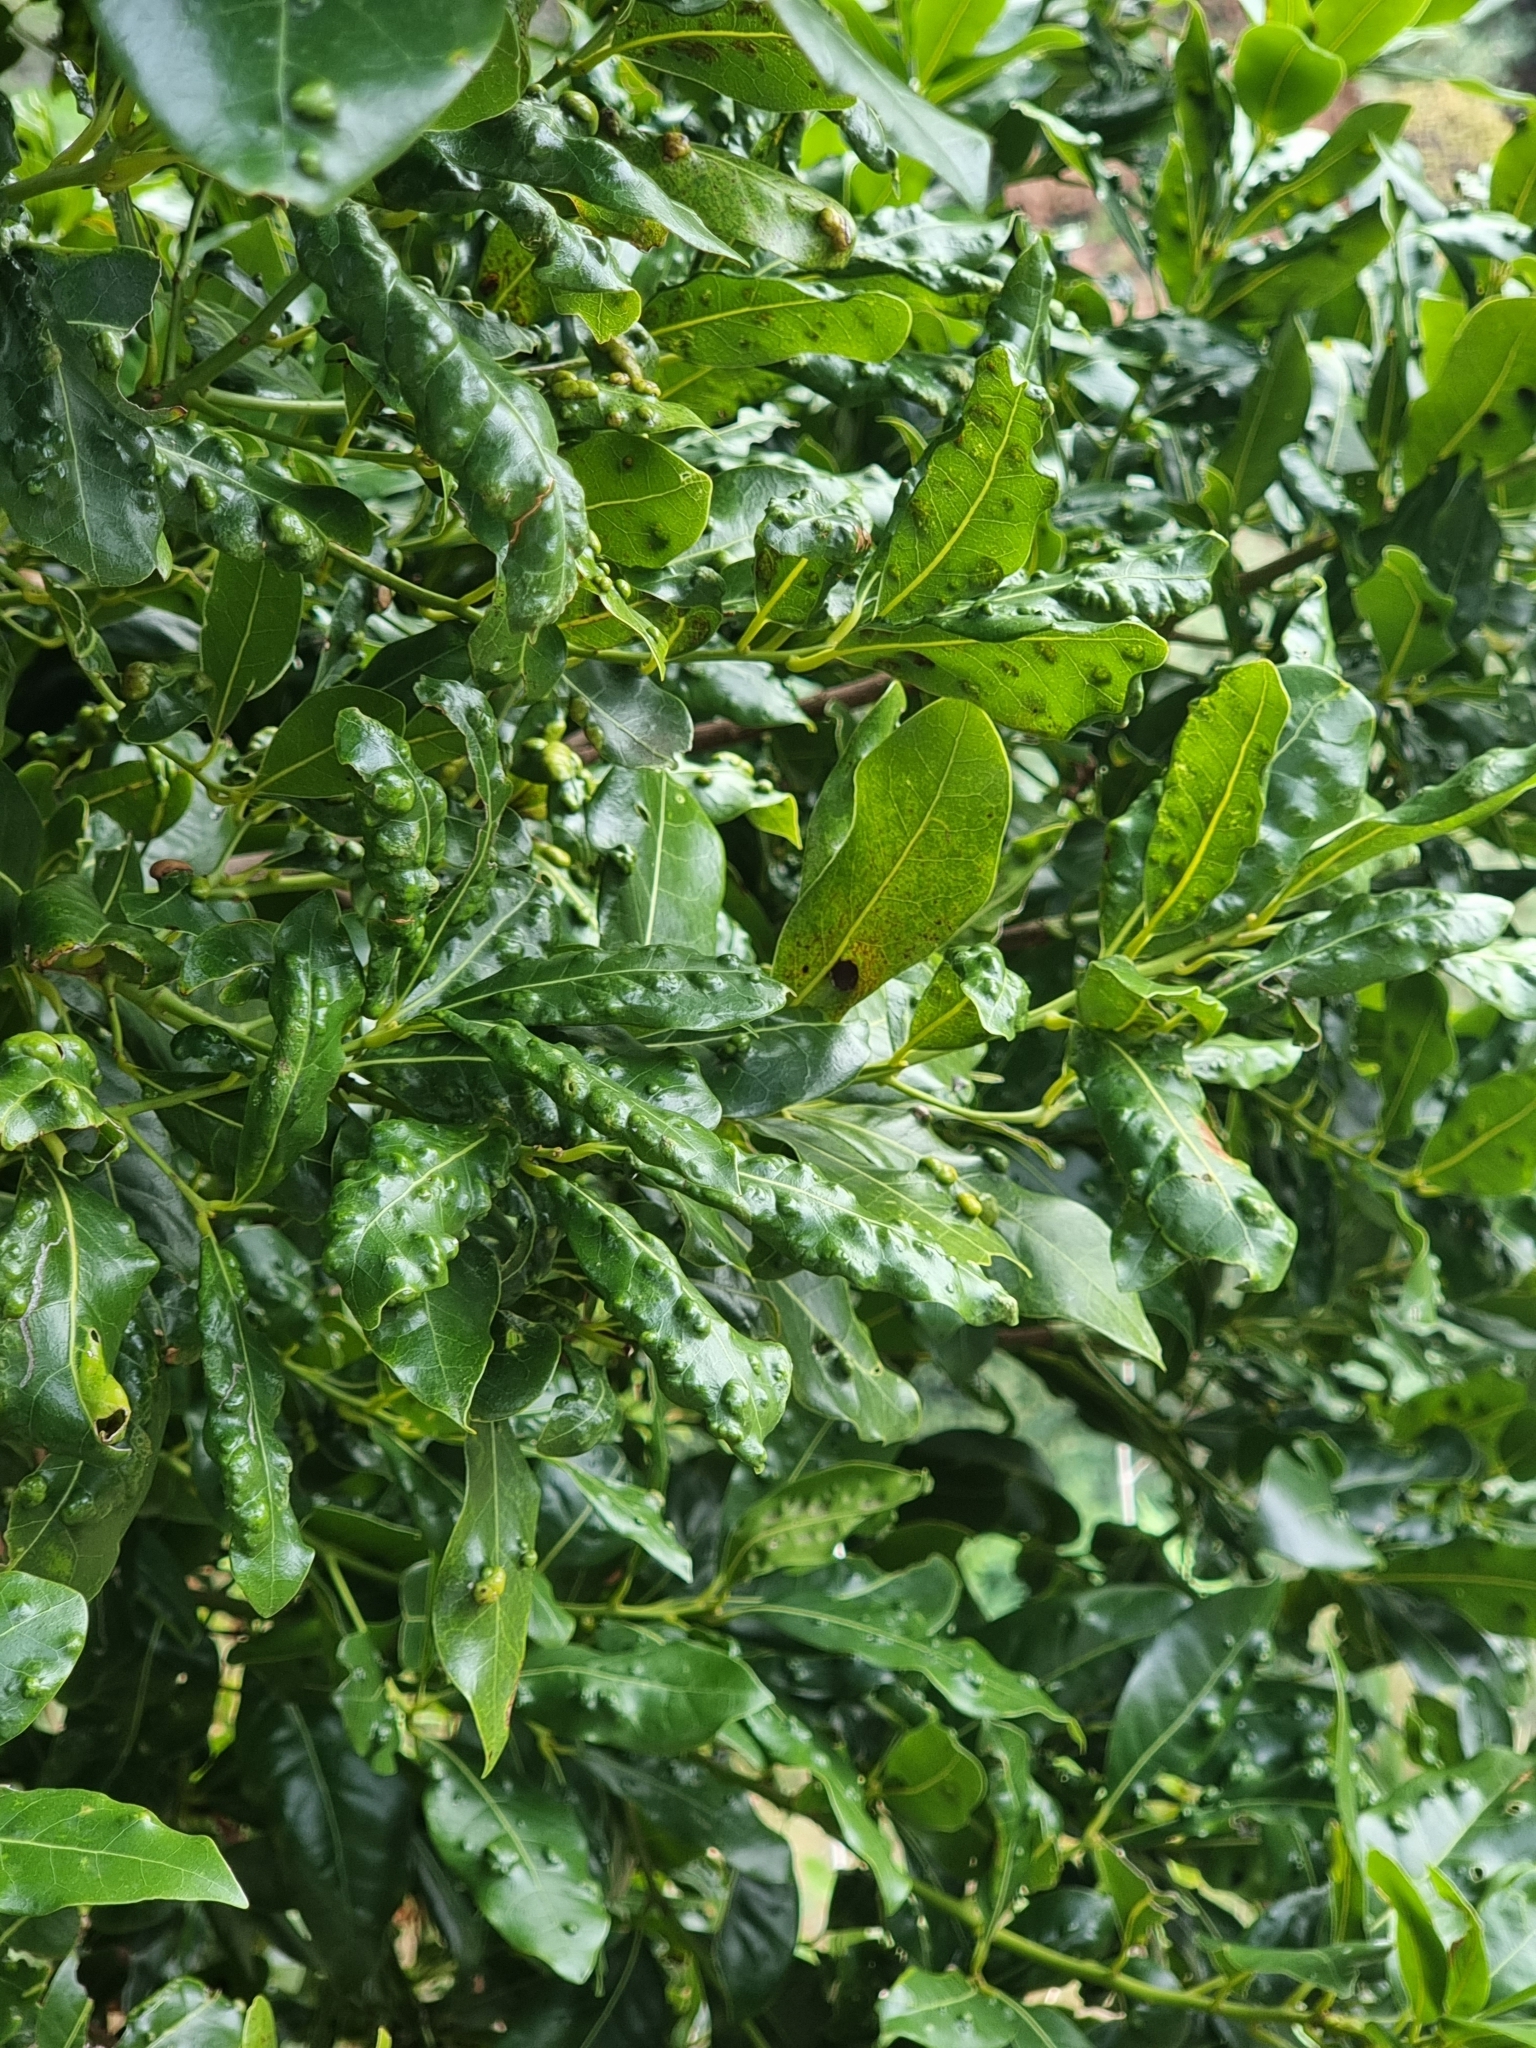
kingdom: Plantae
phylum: Tracheophyta
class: Magnoliopsida
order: Laurales
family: Lauraceae
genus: Apollonias
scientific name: Apollonias barbujana
